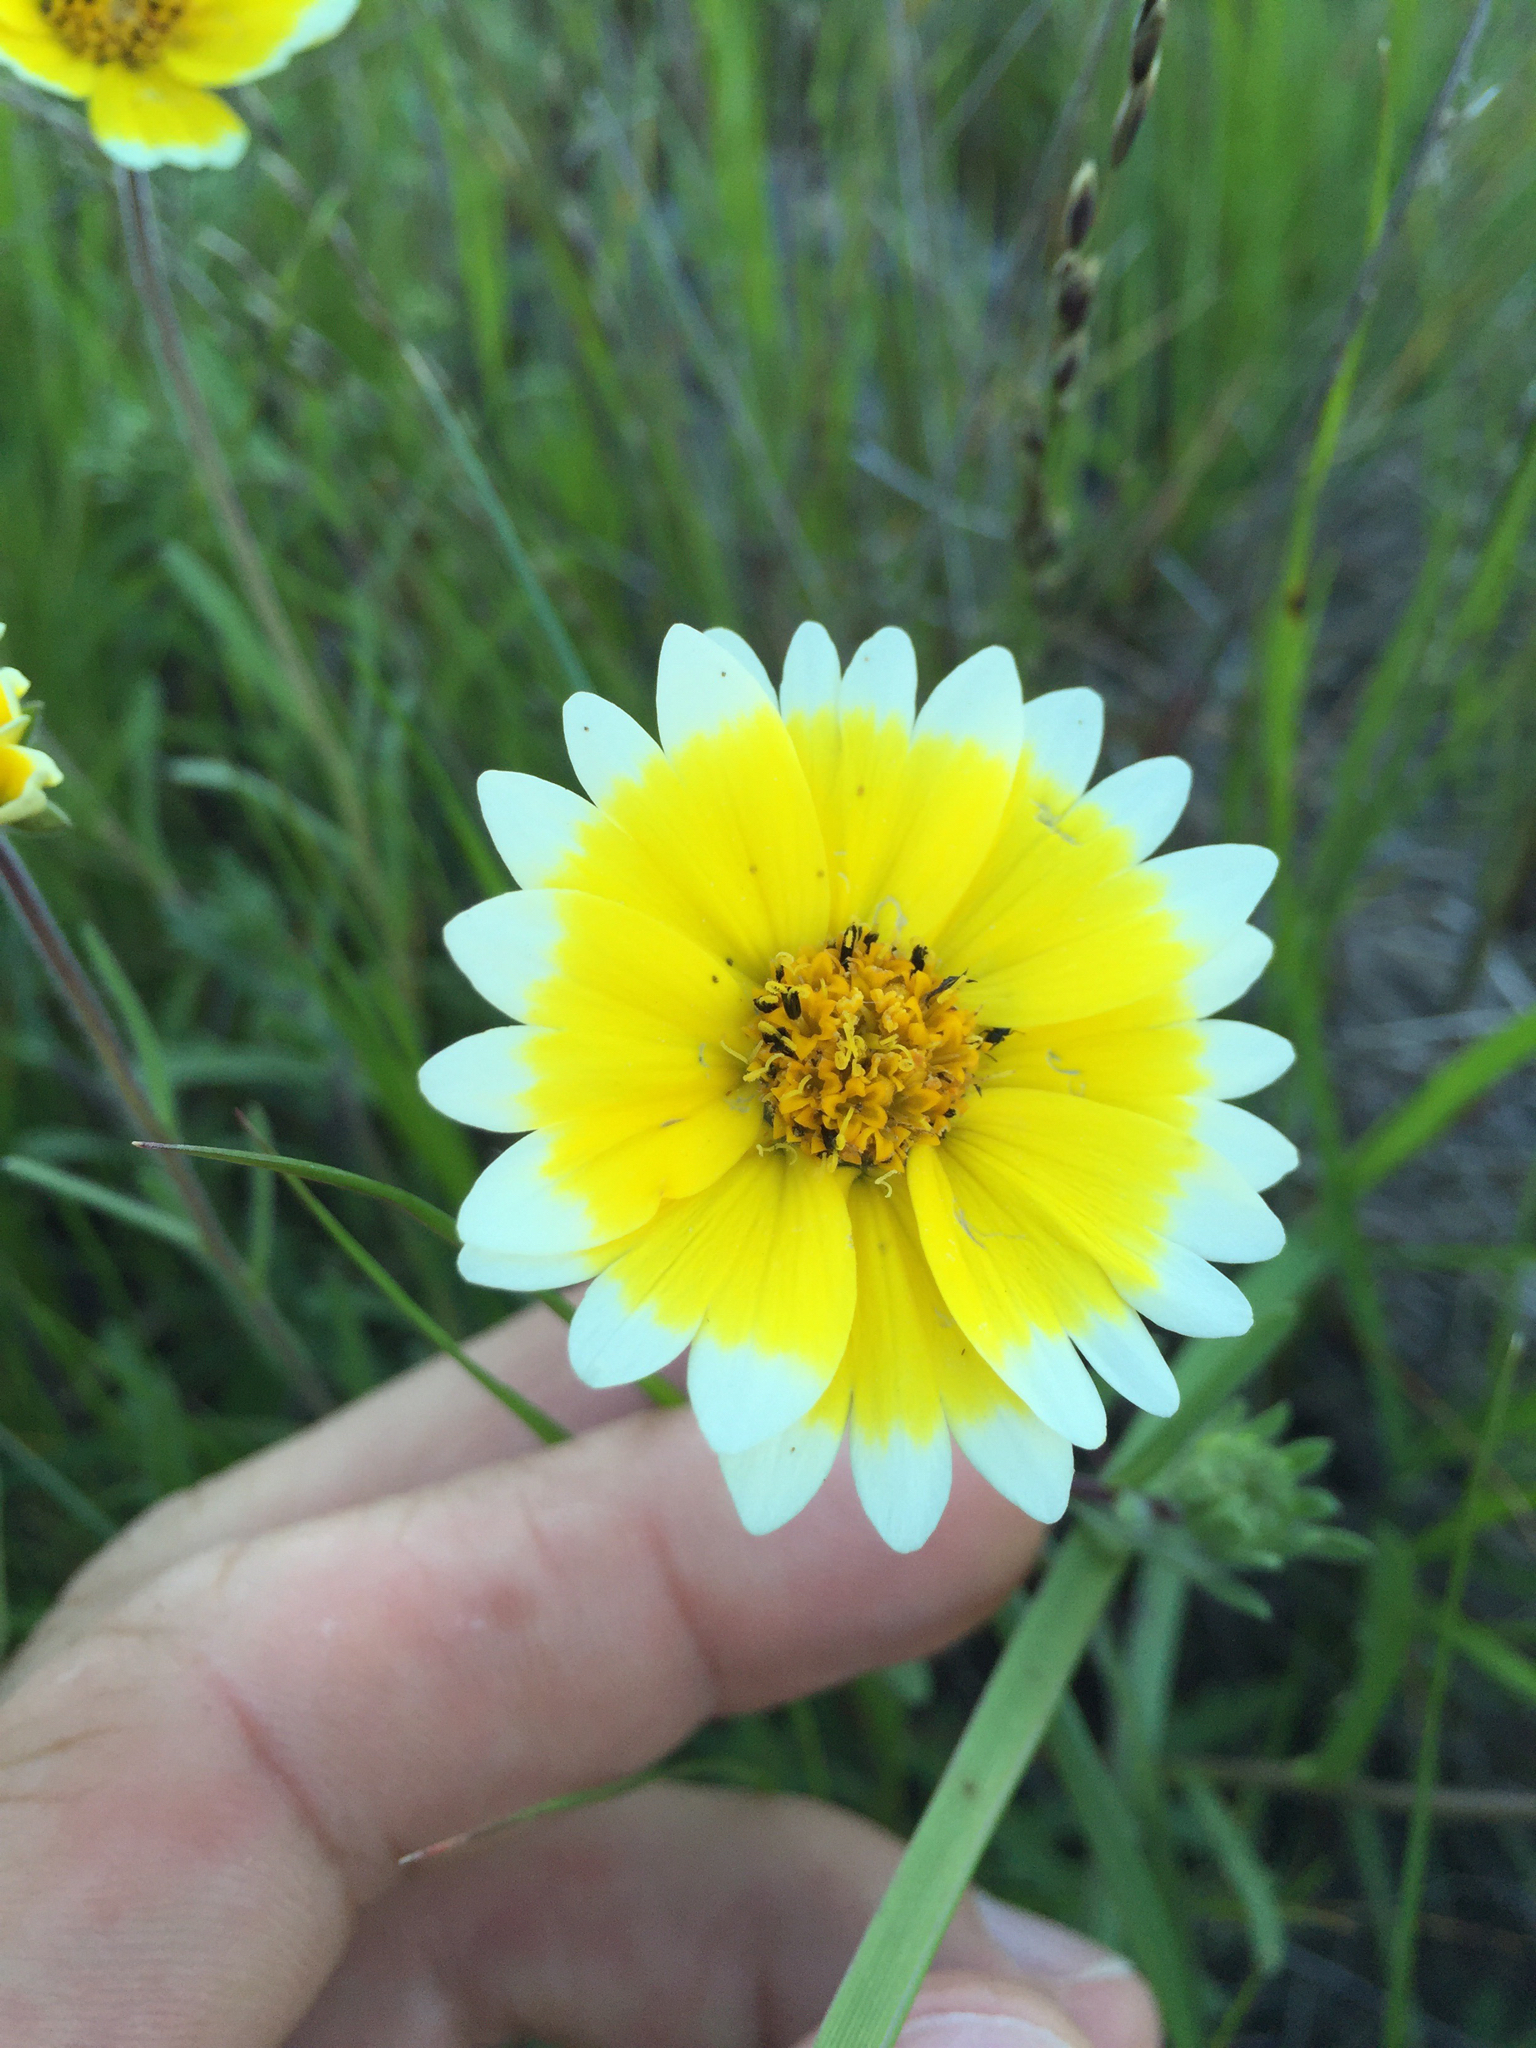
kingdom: Plantae
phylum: Tracheophyta
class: Magnoliopsida
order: Asterales
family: Asteraceae
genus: Layia
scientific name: Layia platyglossa
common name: Tidy-tips
